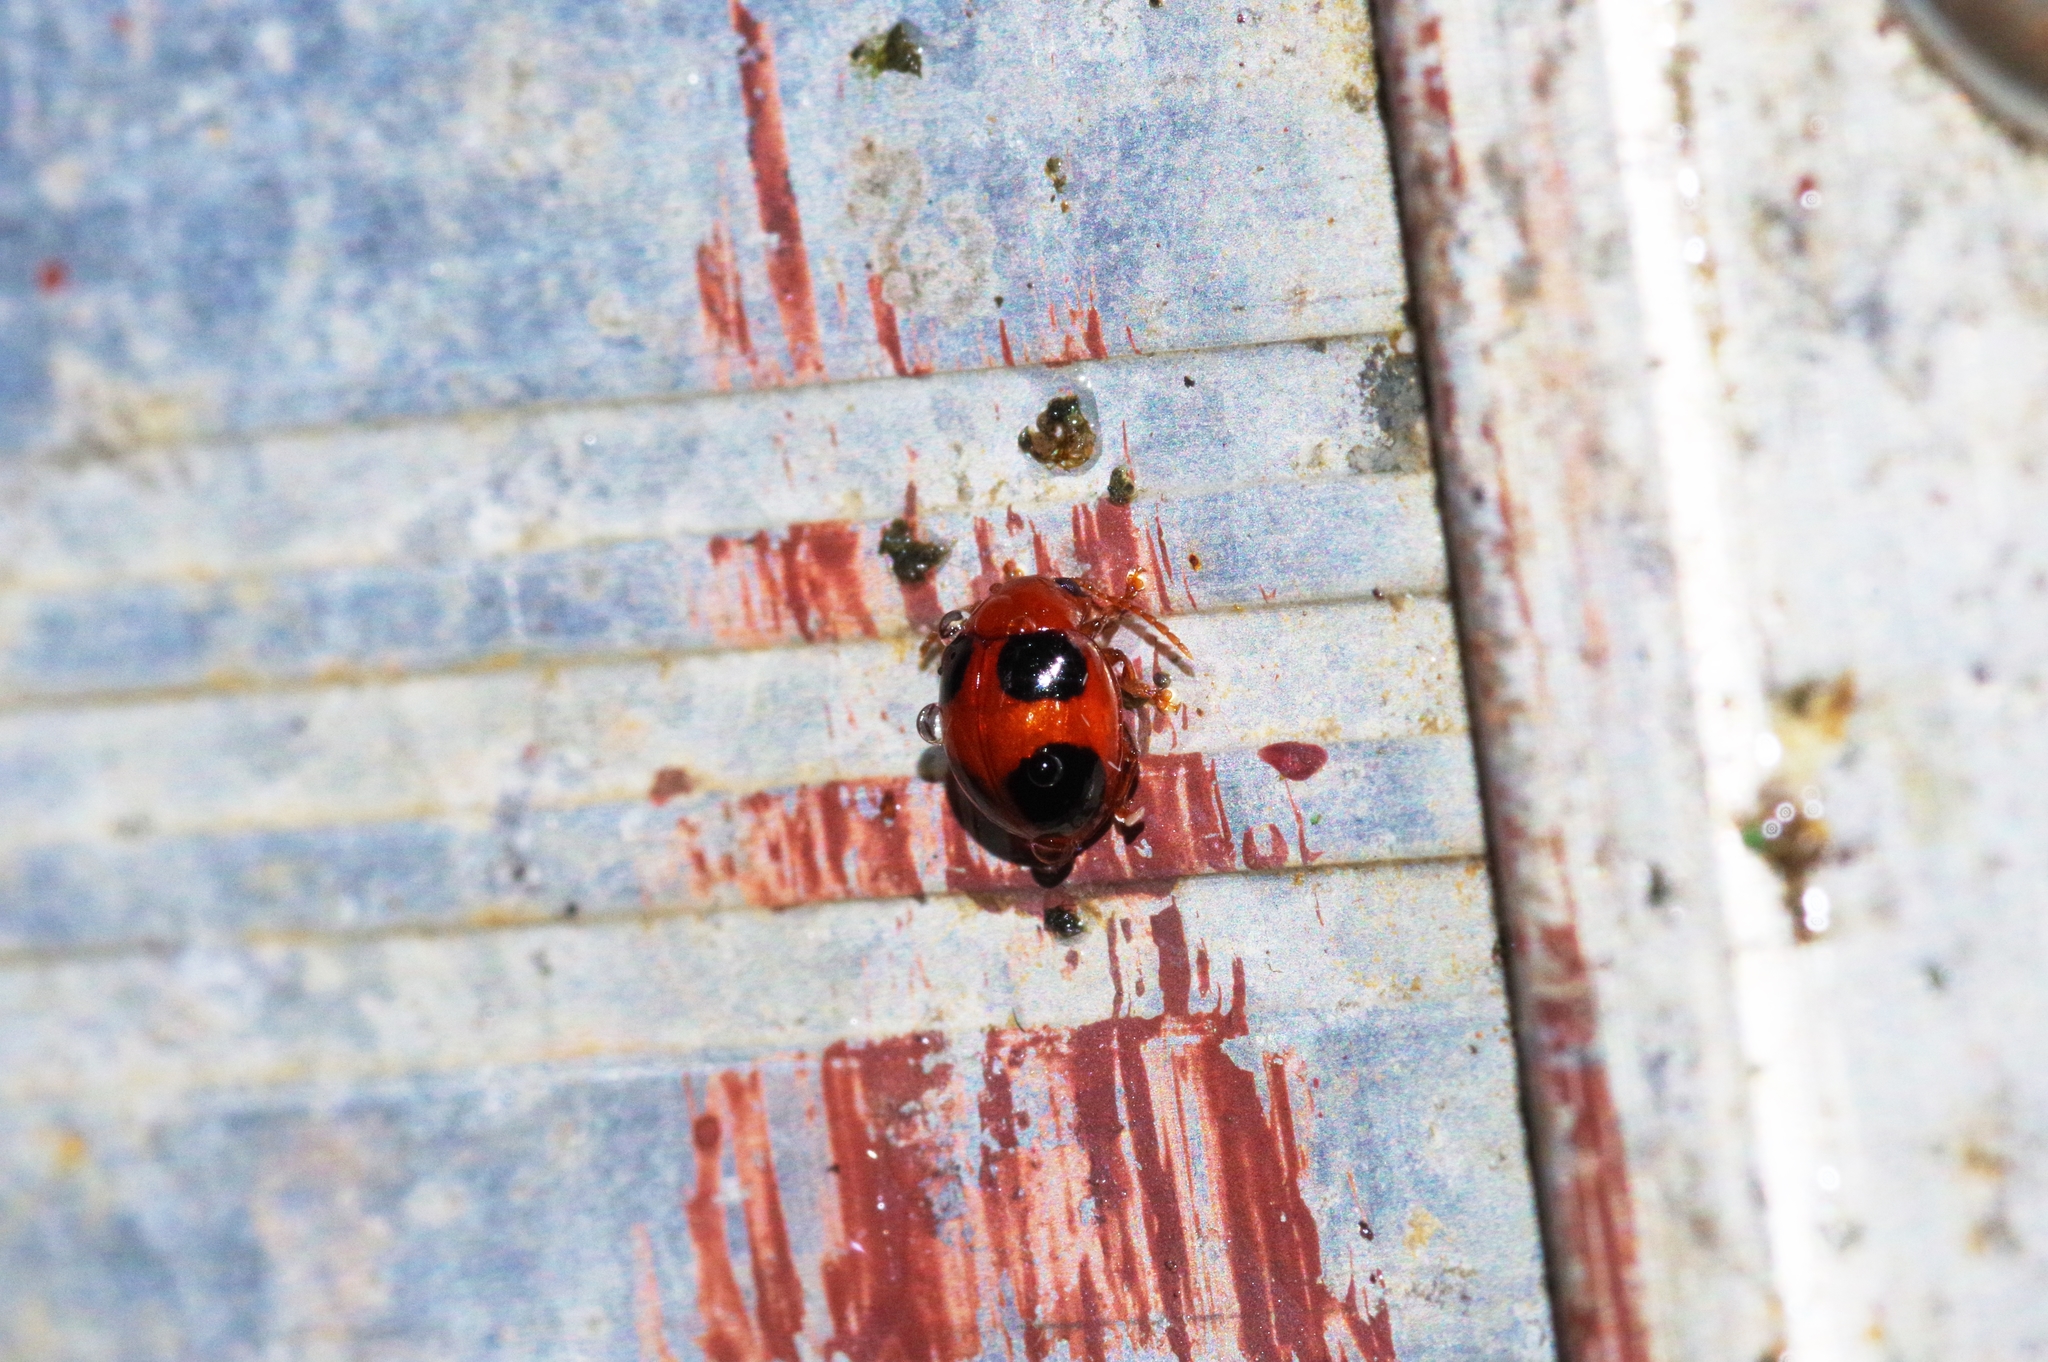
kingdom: Animalia
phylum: Arthropoda
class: Insecta
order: Coleoptera
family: Chrysomelidae
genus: Sphaeroderma
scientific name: Sphaeroderma
